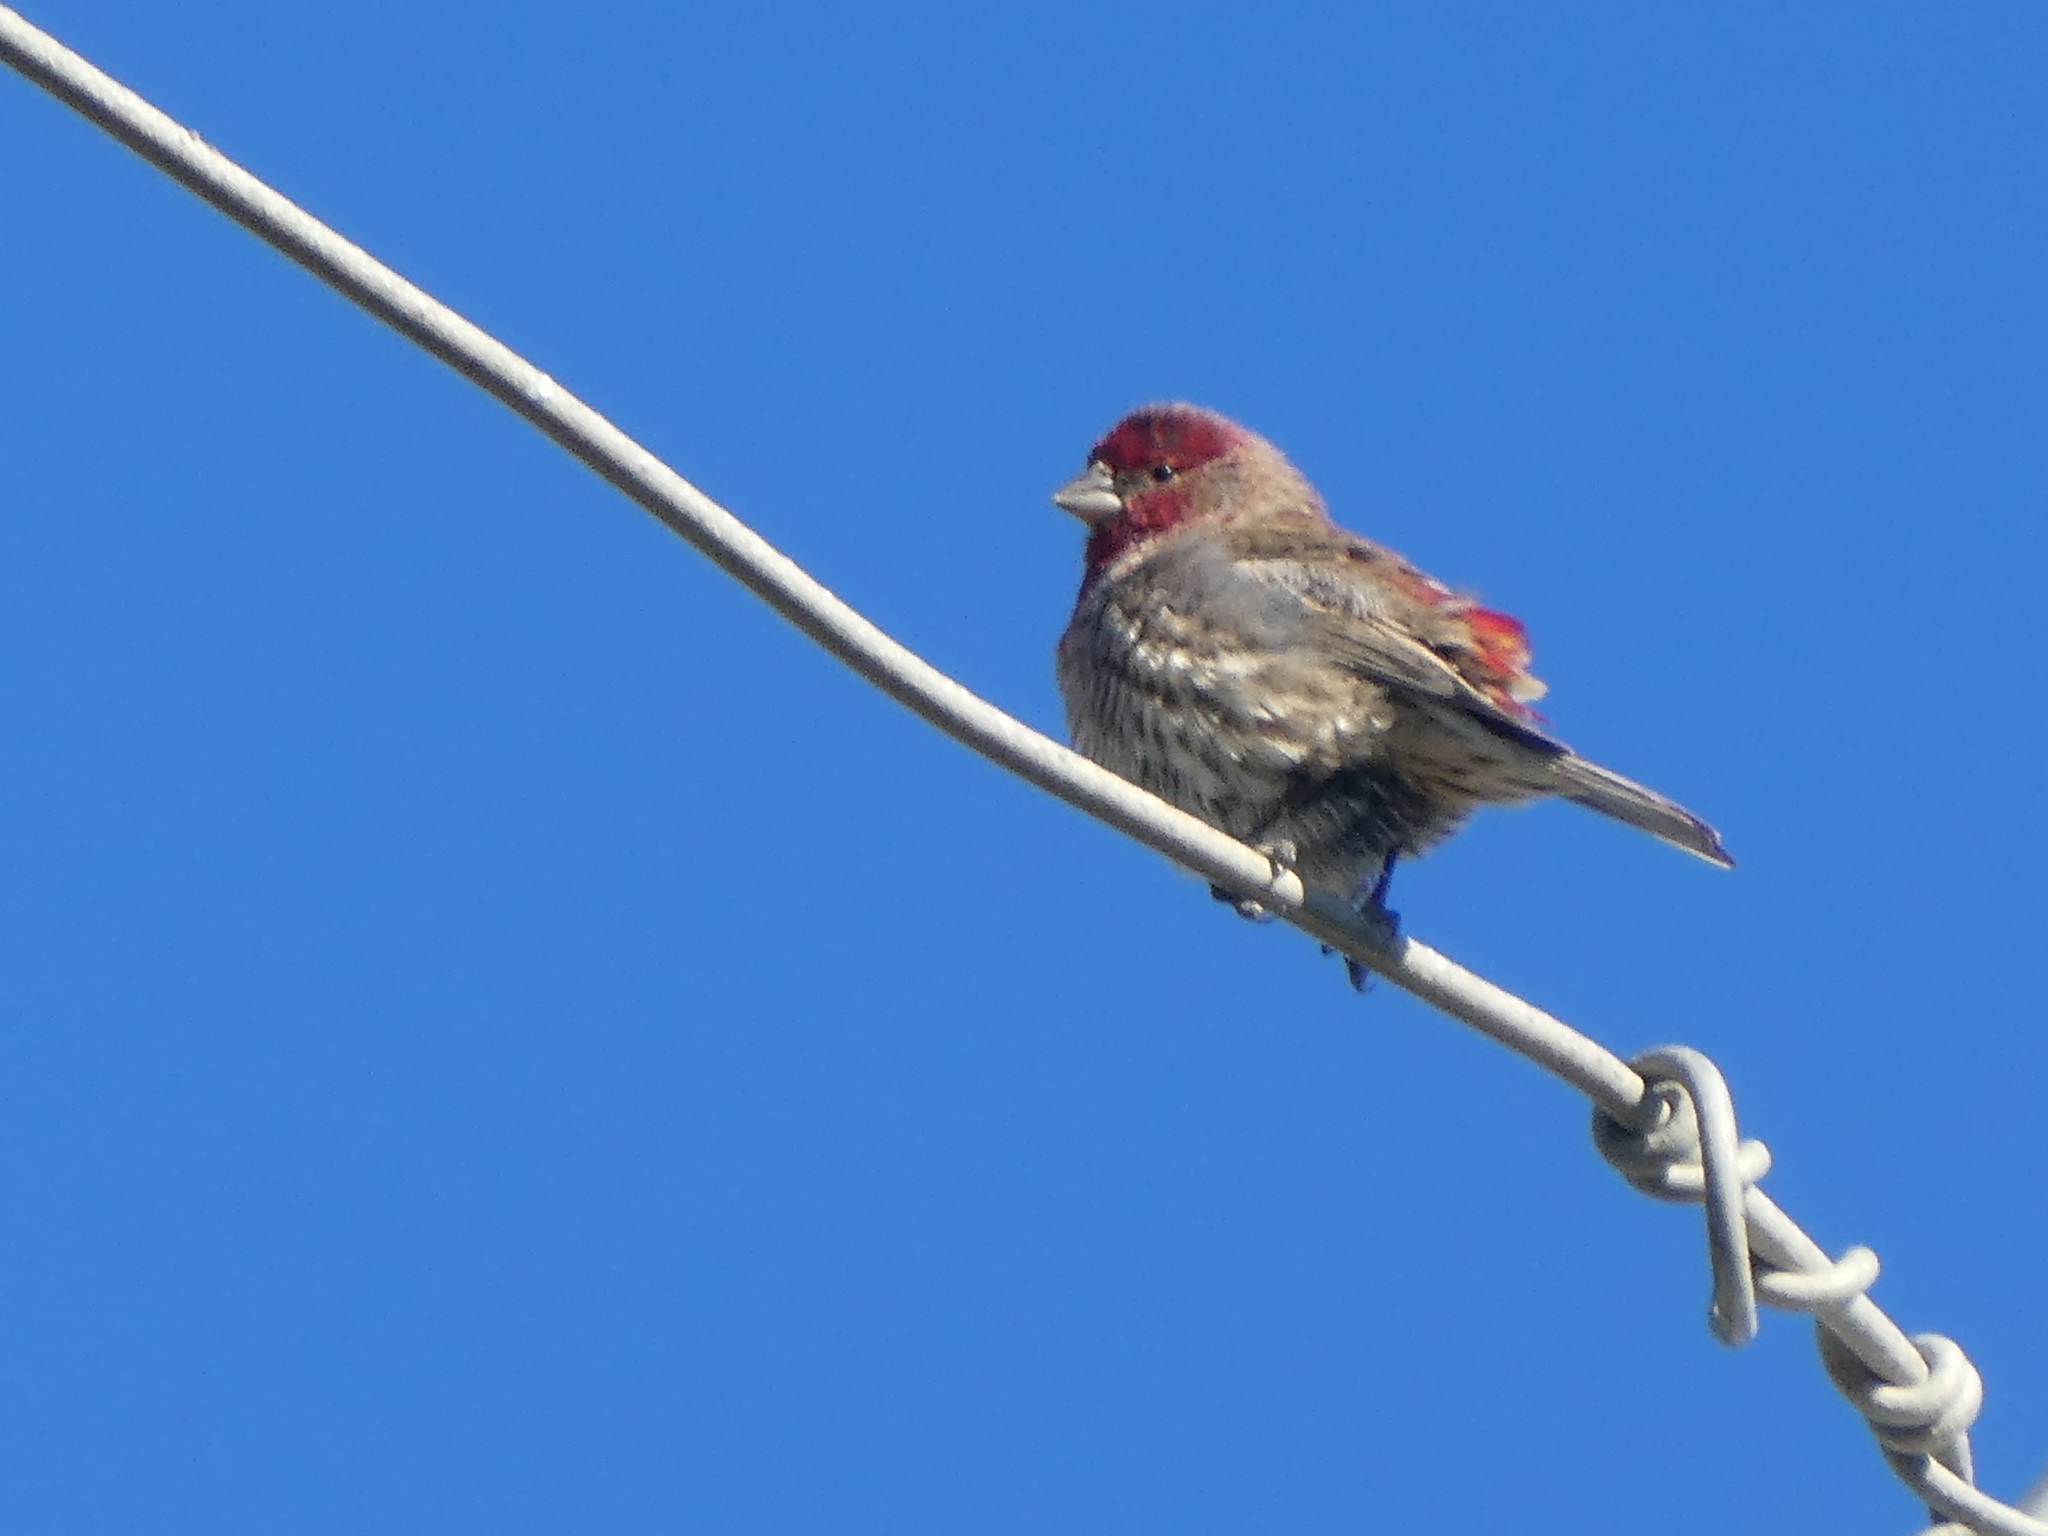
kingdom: Animalia
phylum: Chordata
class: Aves
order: Passeriformes
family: Fringillidae
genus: Haemorhous
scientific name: Haemorhous mexicanus
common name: House finch
